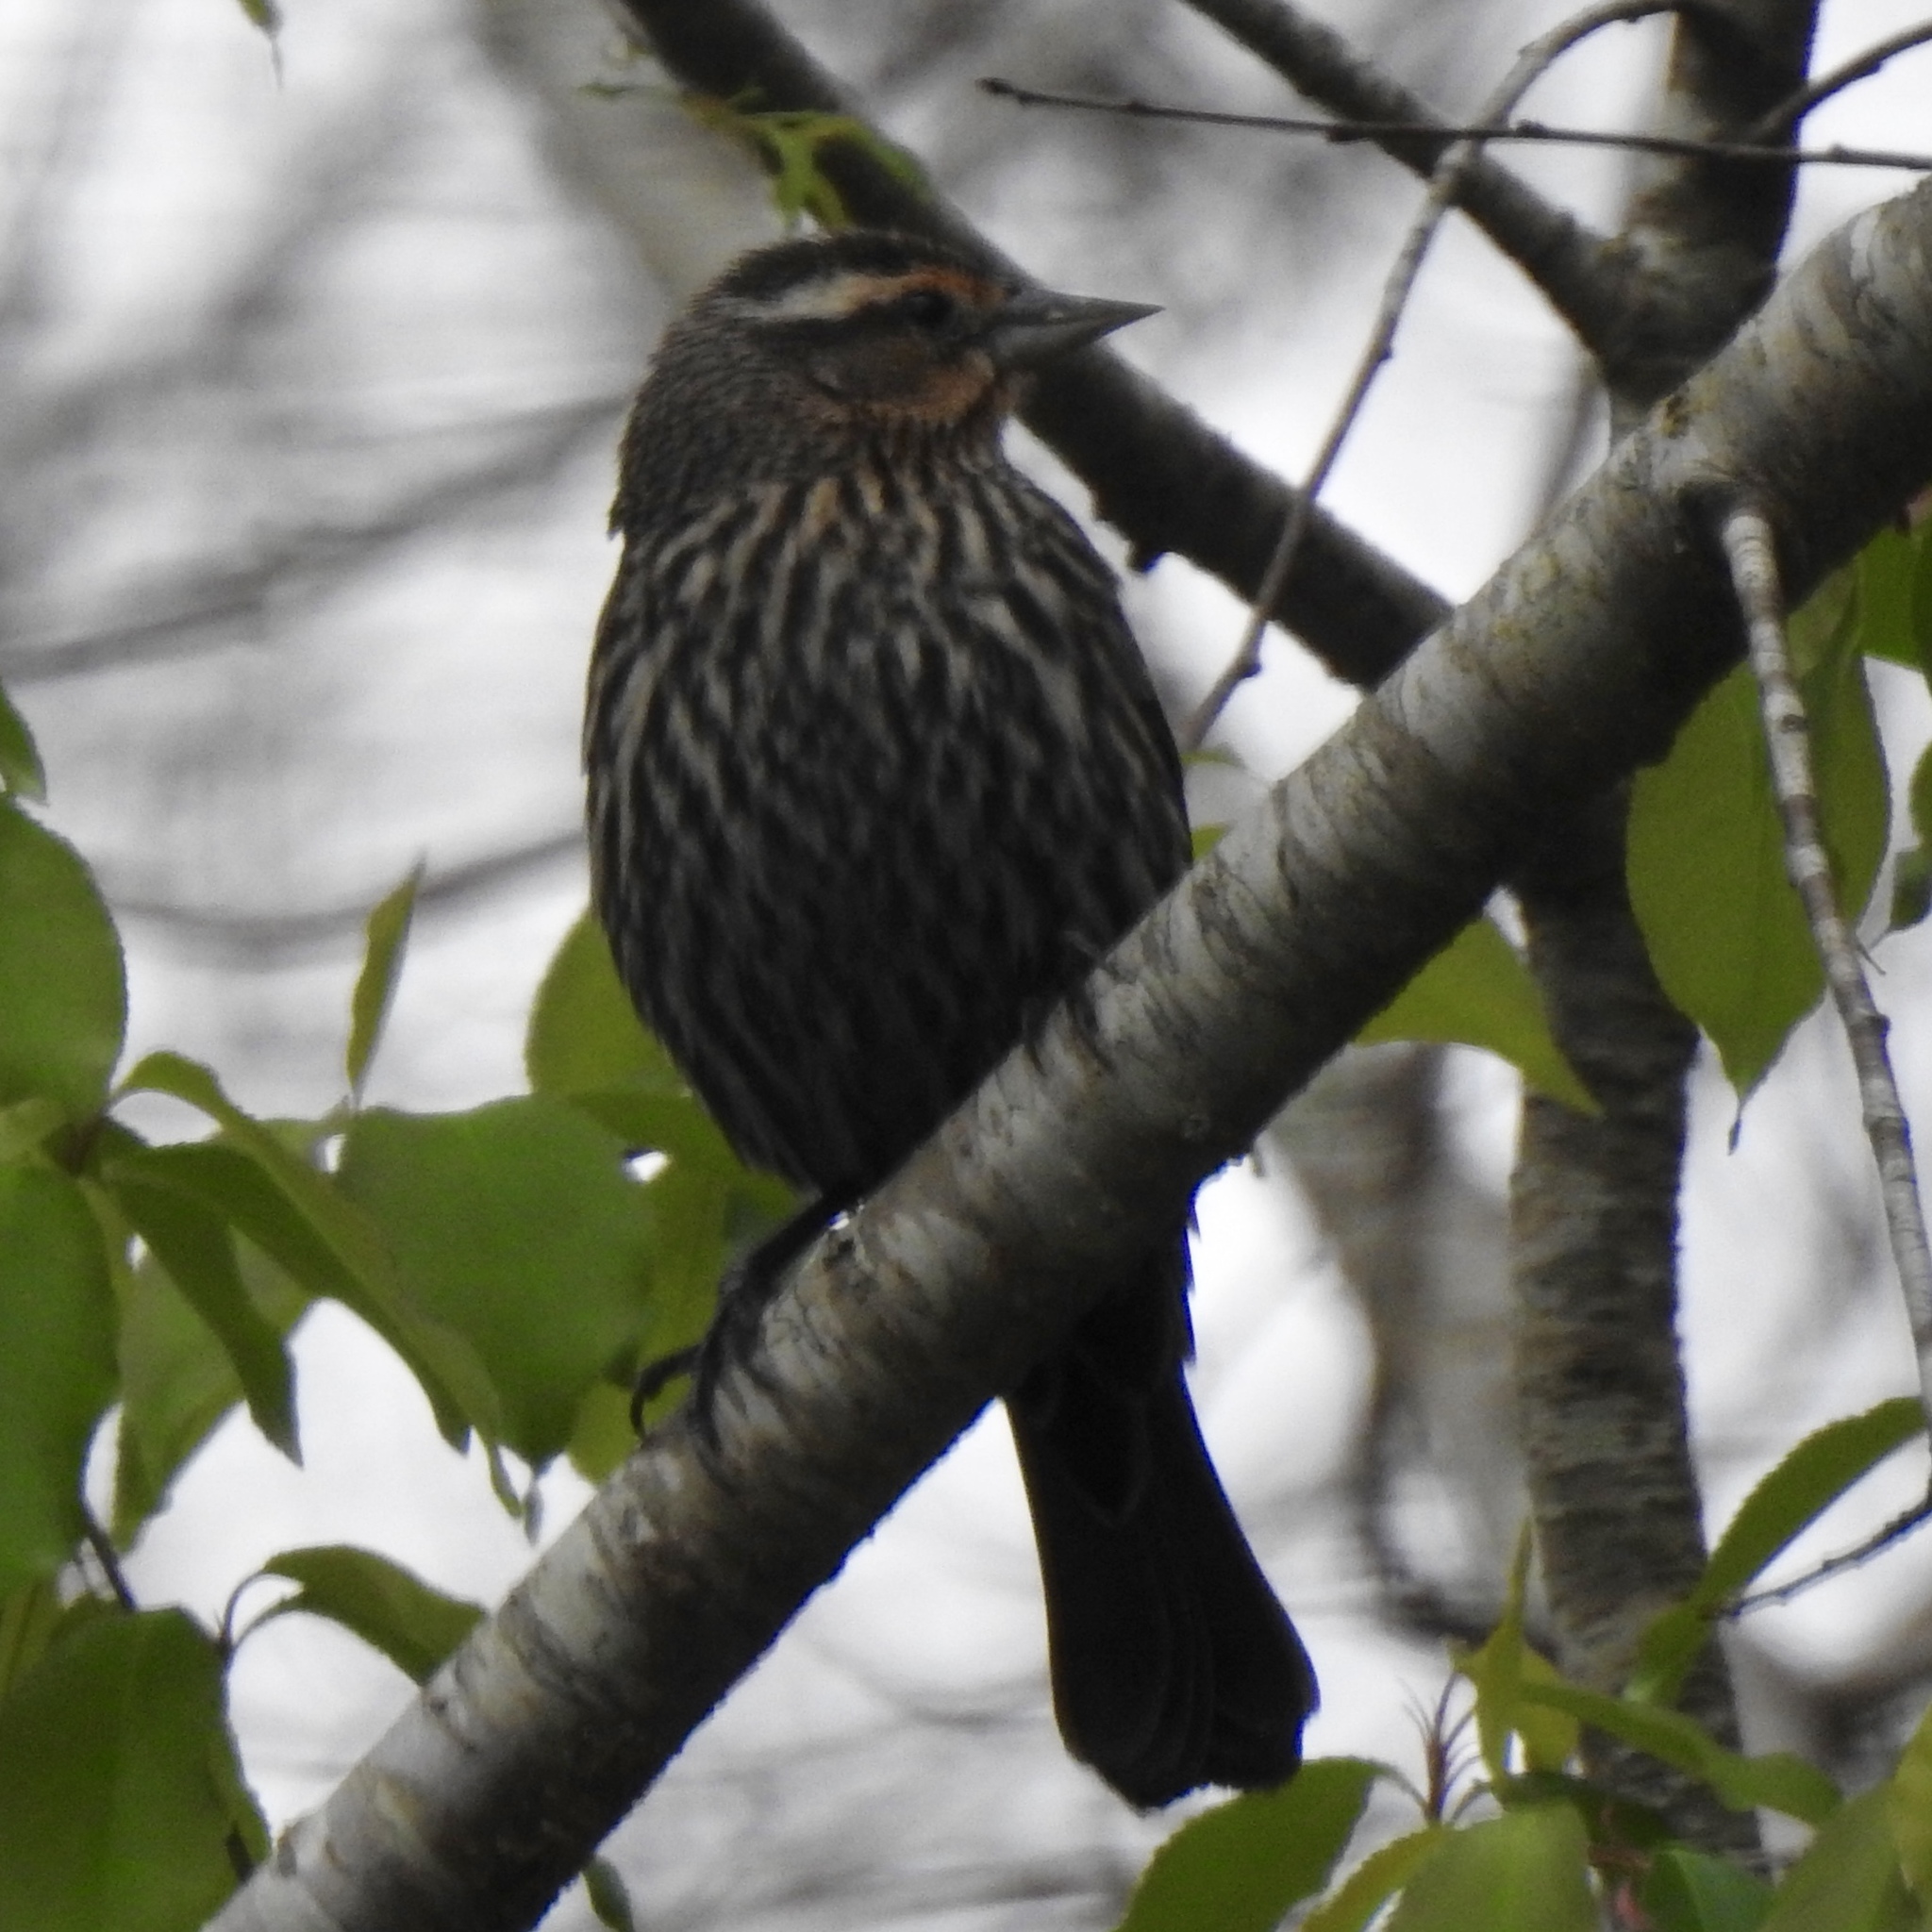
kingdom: Animalia
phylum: Chordata
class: Aves
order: Passeriformes
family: Icteridae
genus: Agelaius
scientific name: Agelaius phoeniceus
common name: Red-winged blackbird
